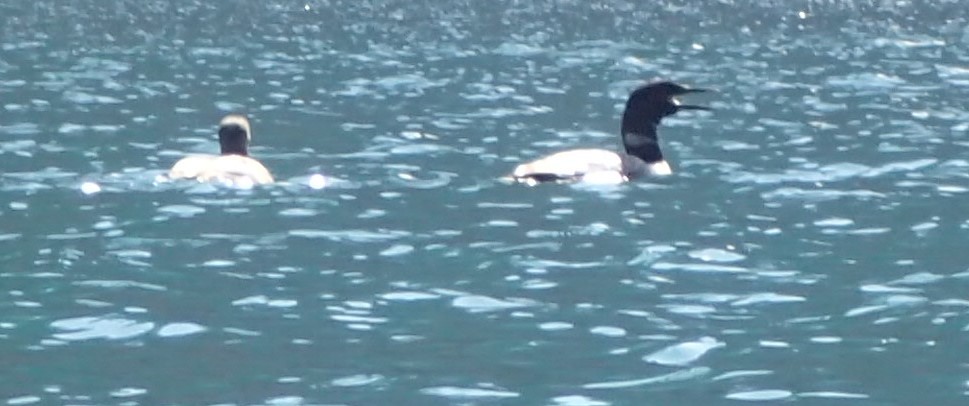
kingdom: Animalia
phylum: Chordata
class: Aves
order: Gaviiformes
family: Gaviidae
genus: Gavia
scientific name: Gavia immer
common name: Common loon
